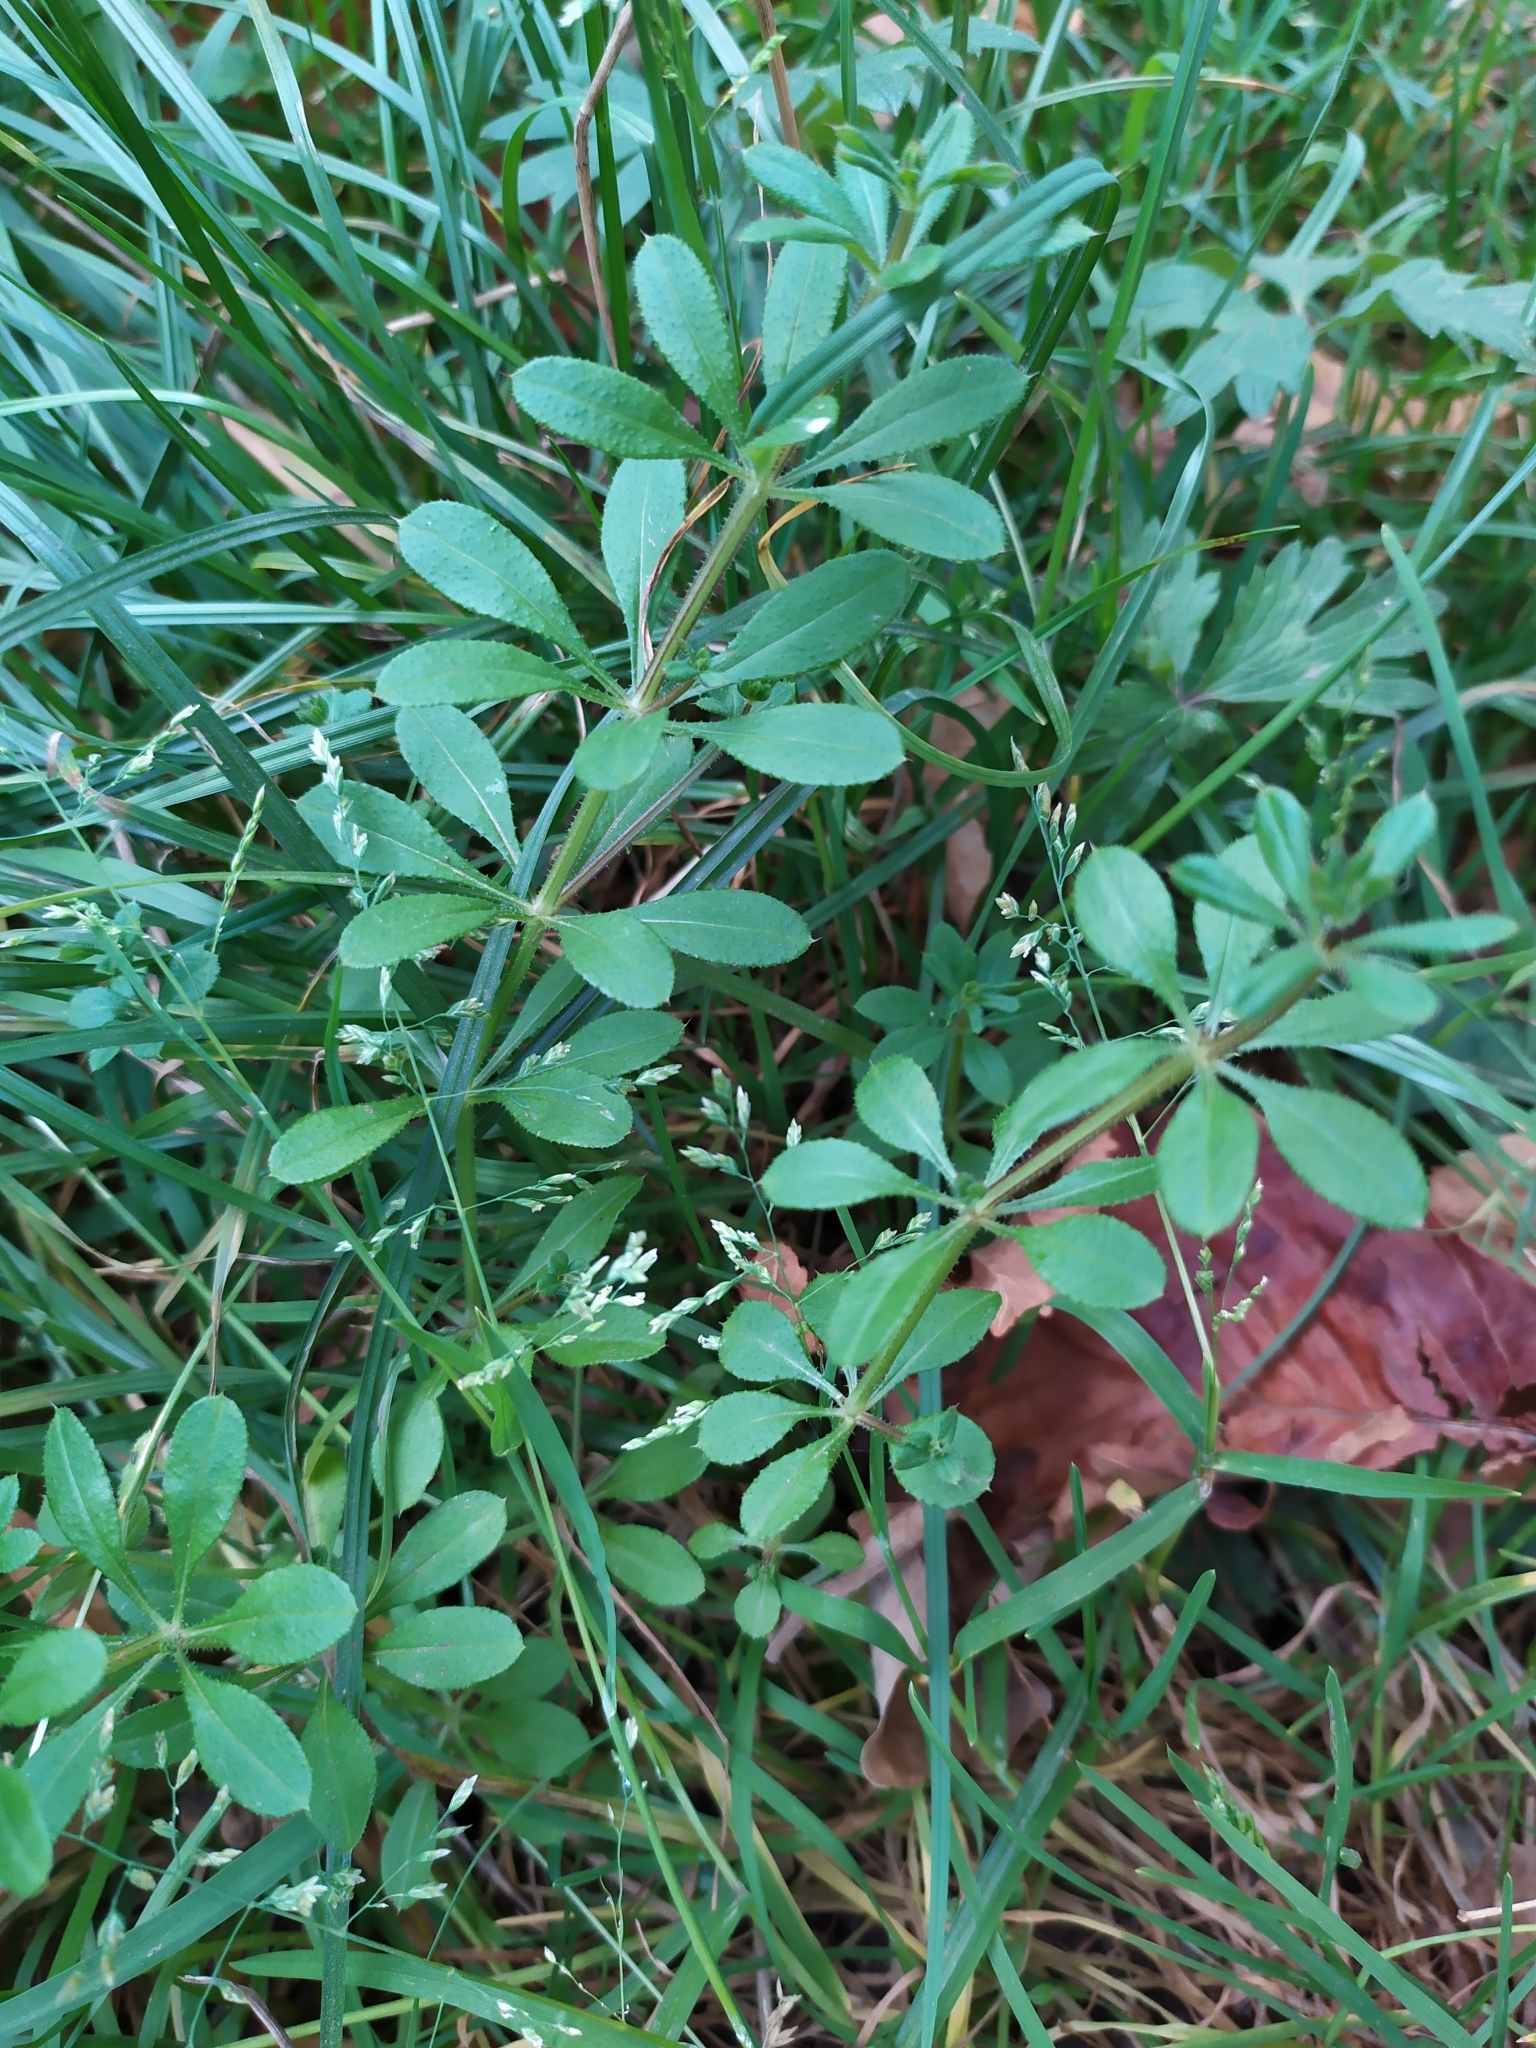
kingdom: Plantae
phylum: Tracheophyta
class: Magnoliopsida
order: Gentianales
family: Rubiaceae
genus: Galium
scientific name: Galium aparine
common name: Cleavers
